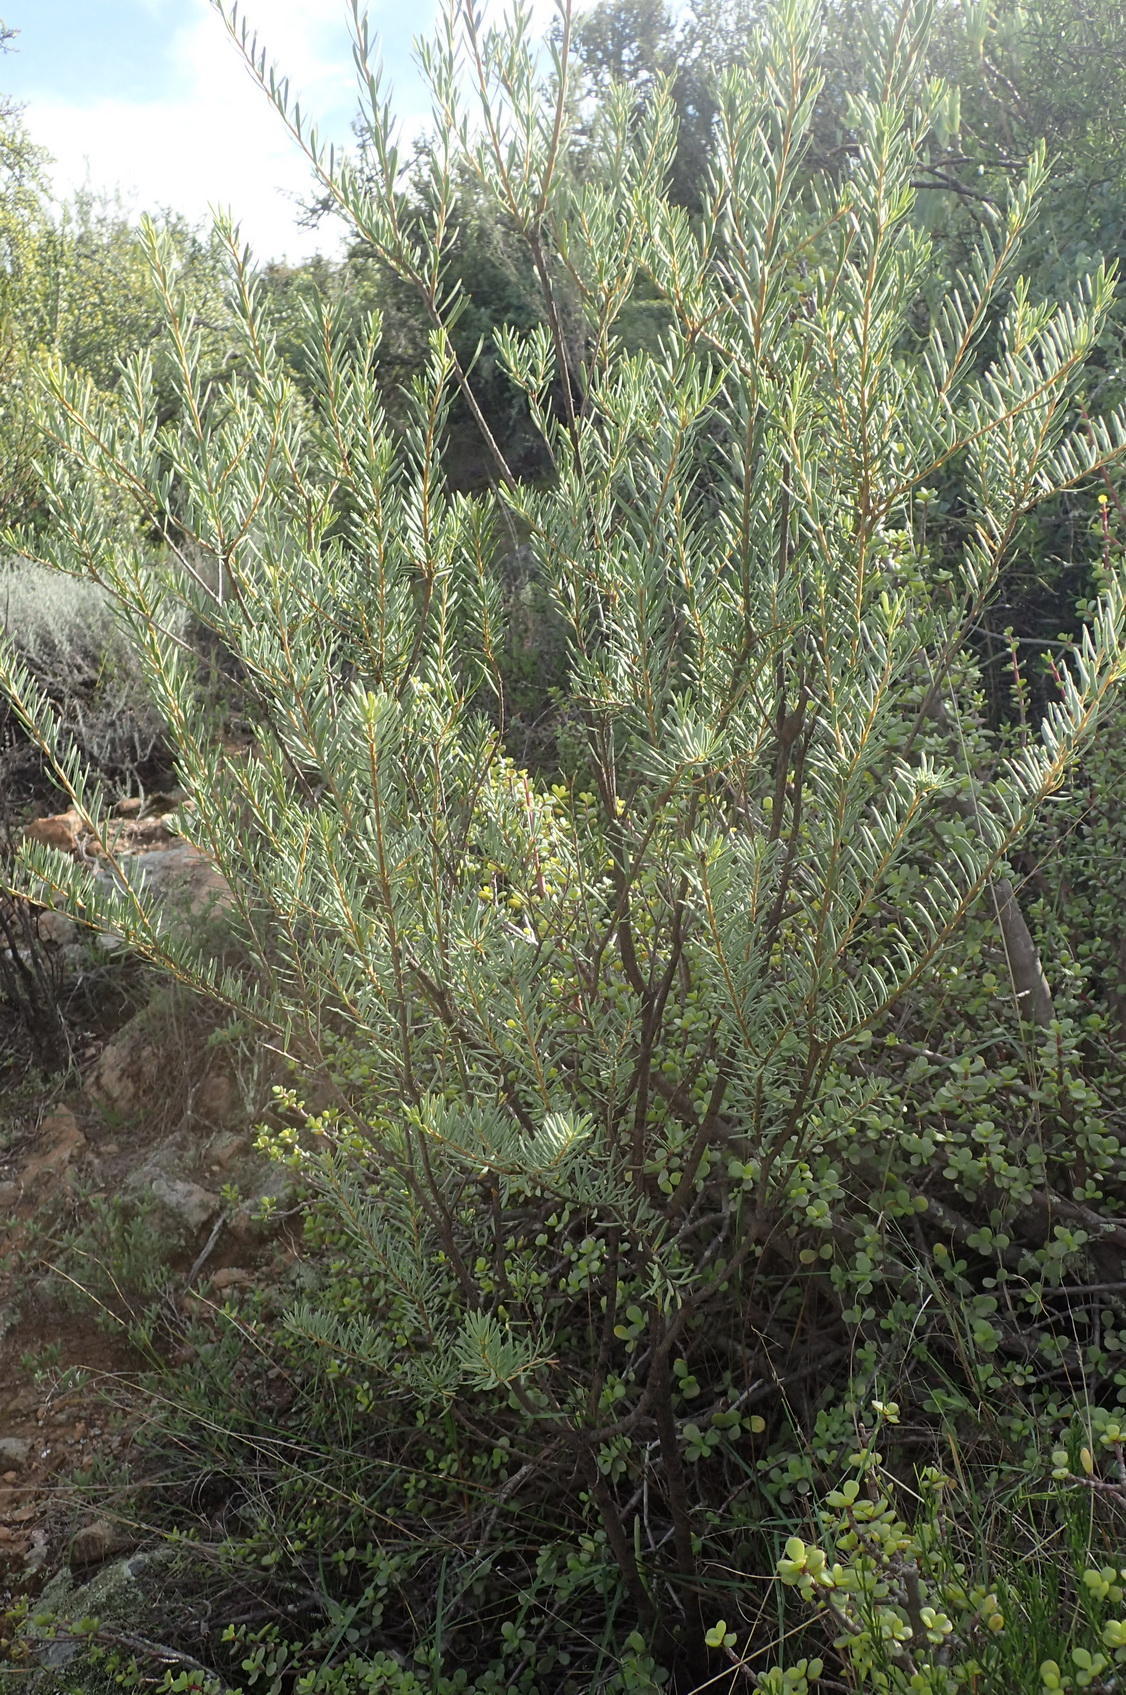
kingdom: Plantae
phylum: Tracheophyta
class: Magnoliopsida
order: Fabales
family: Polygalaceae
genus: Polygala
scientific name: Polygala myrtifolia
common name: Myrtle-leaf milkwort
